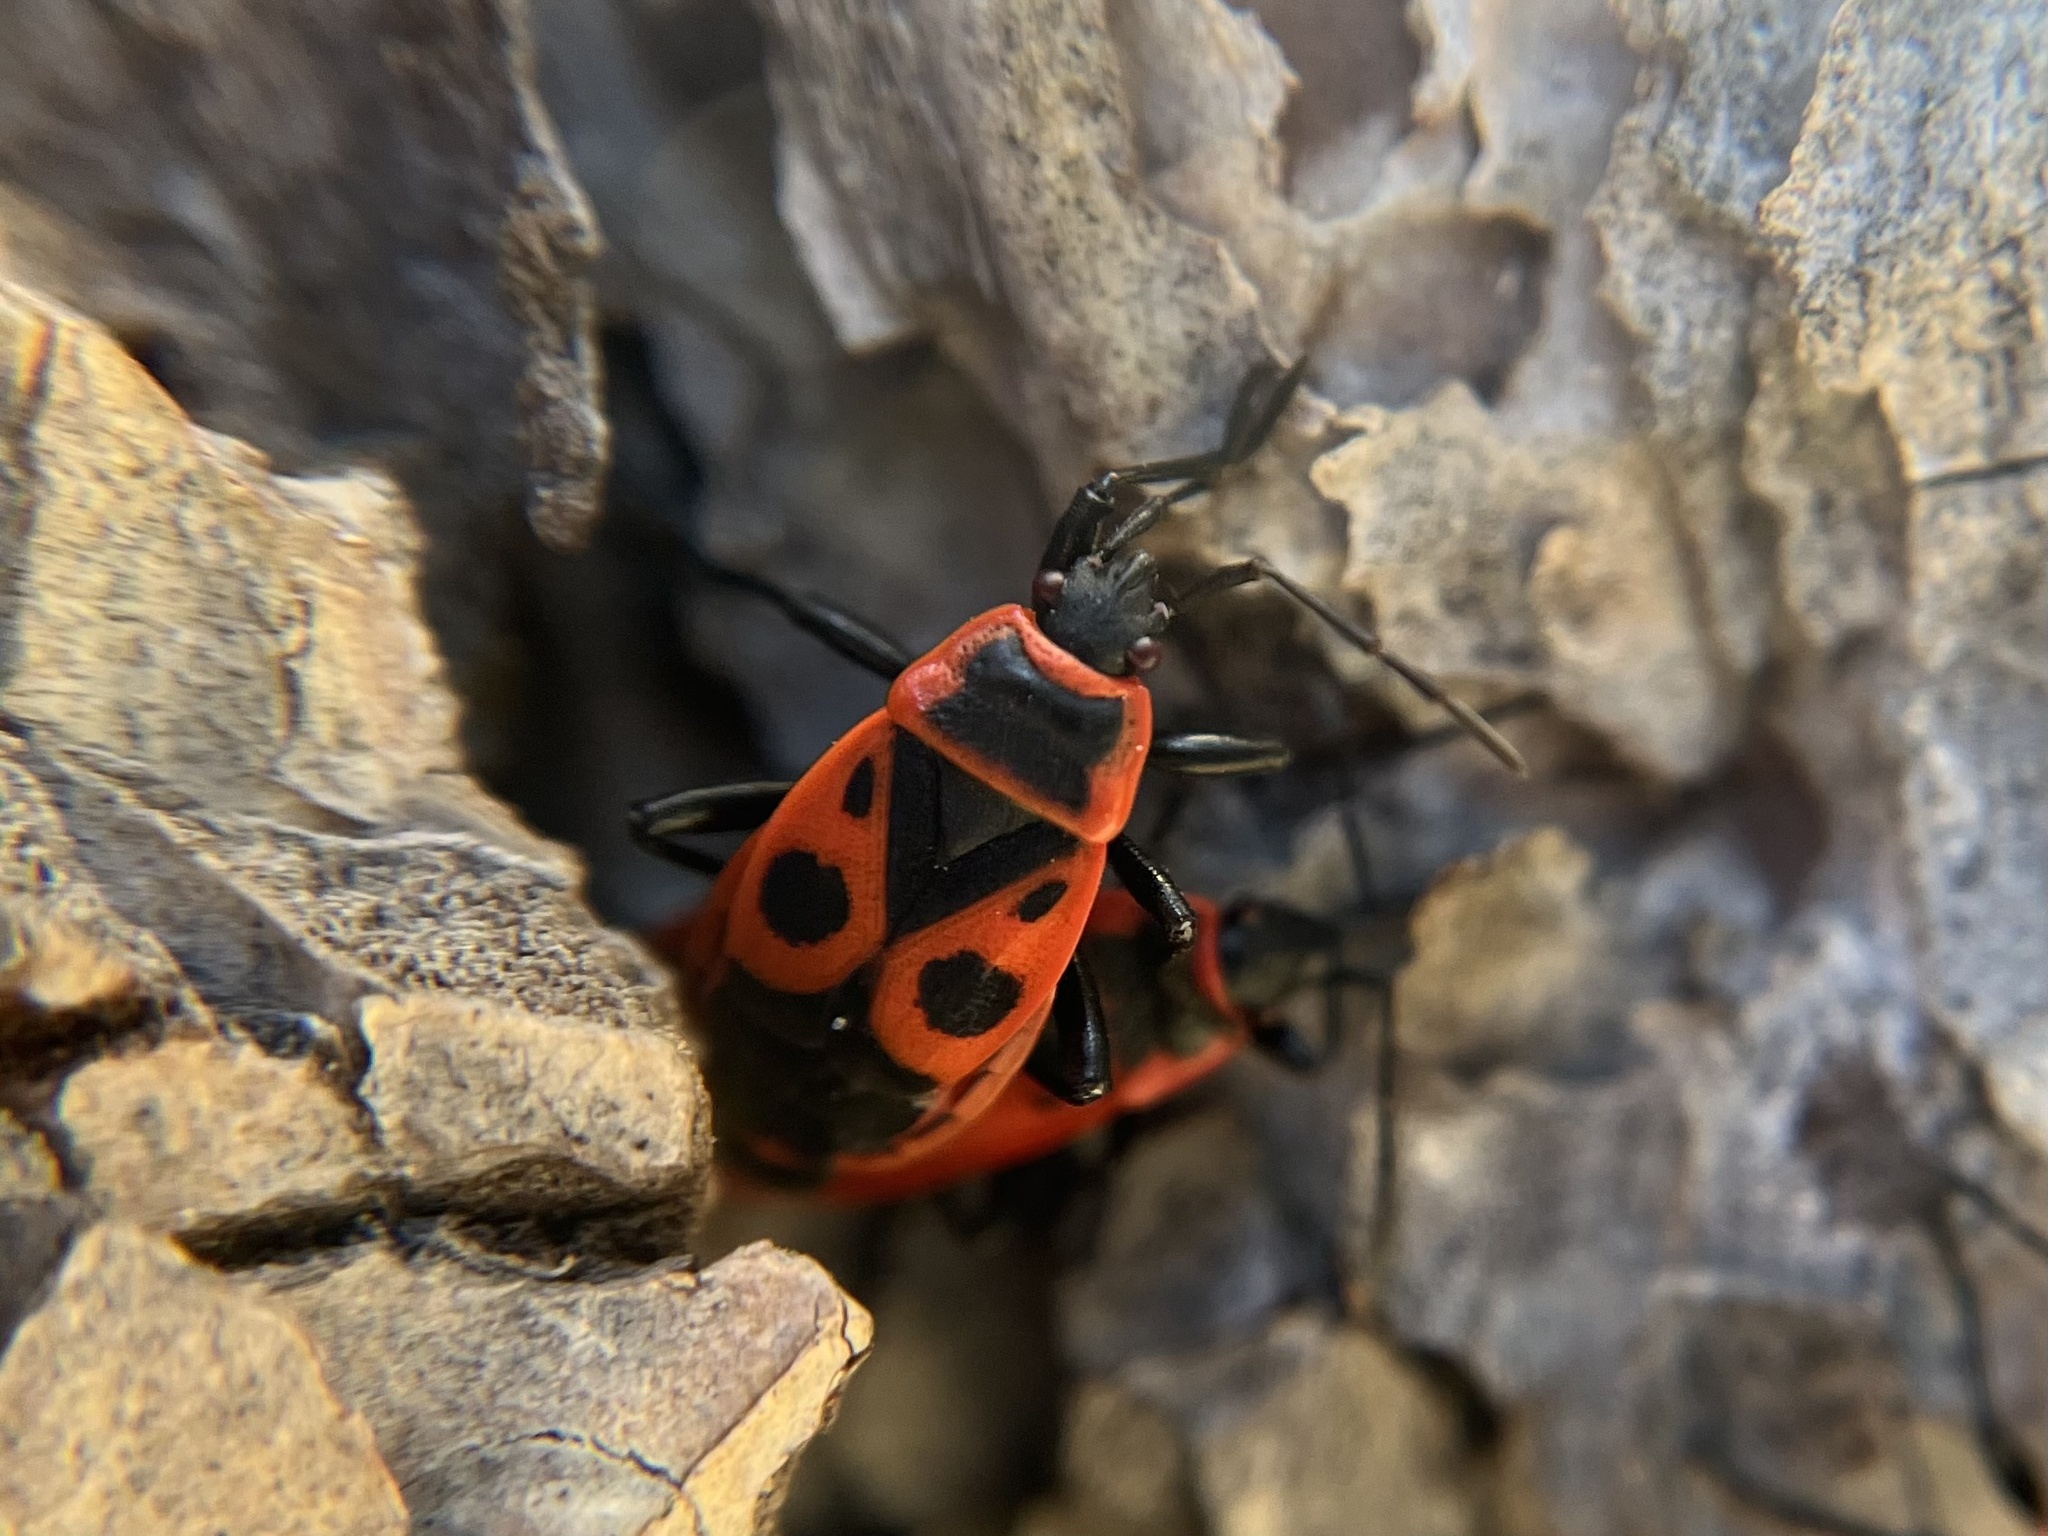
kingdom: Animalia
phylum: Arthropoda
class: Insecta
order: Hemiptera
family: Pyrrhocoridae
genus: Pyrrhocoris
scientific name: Pyrrhocoris apterus
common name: Firebug
